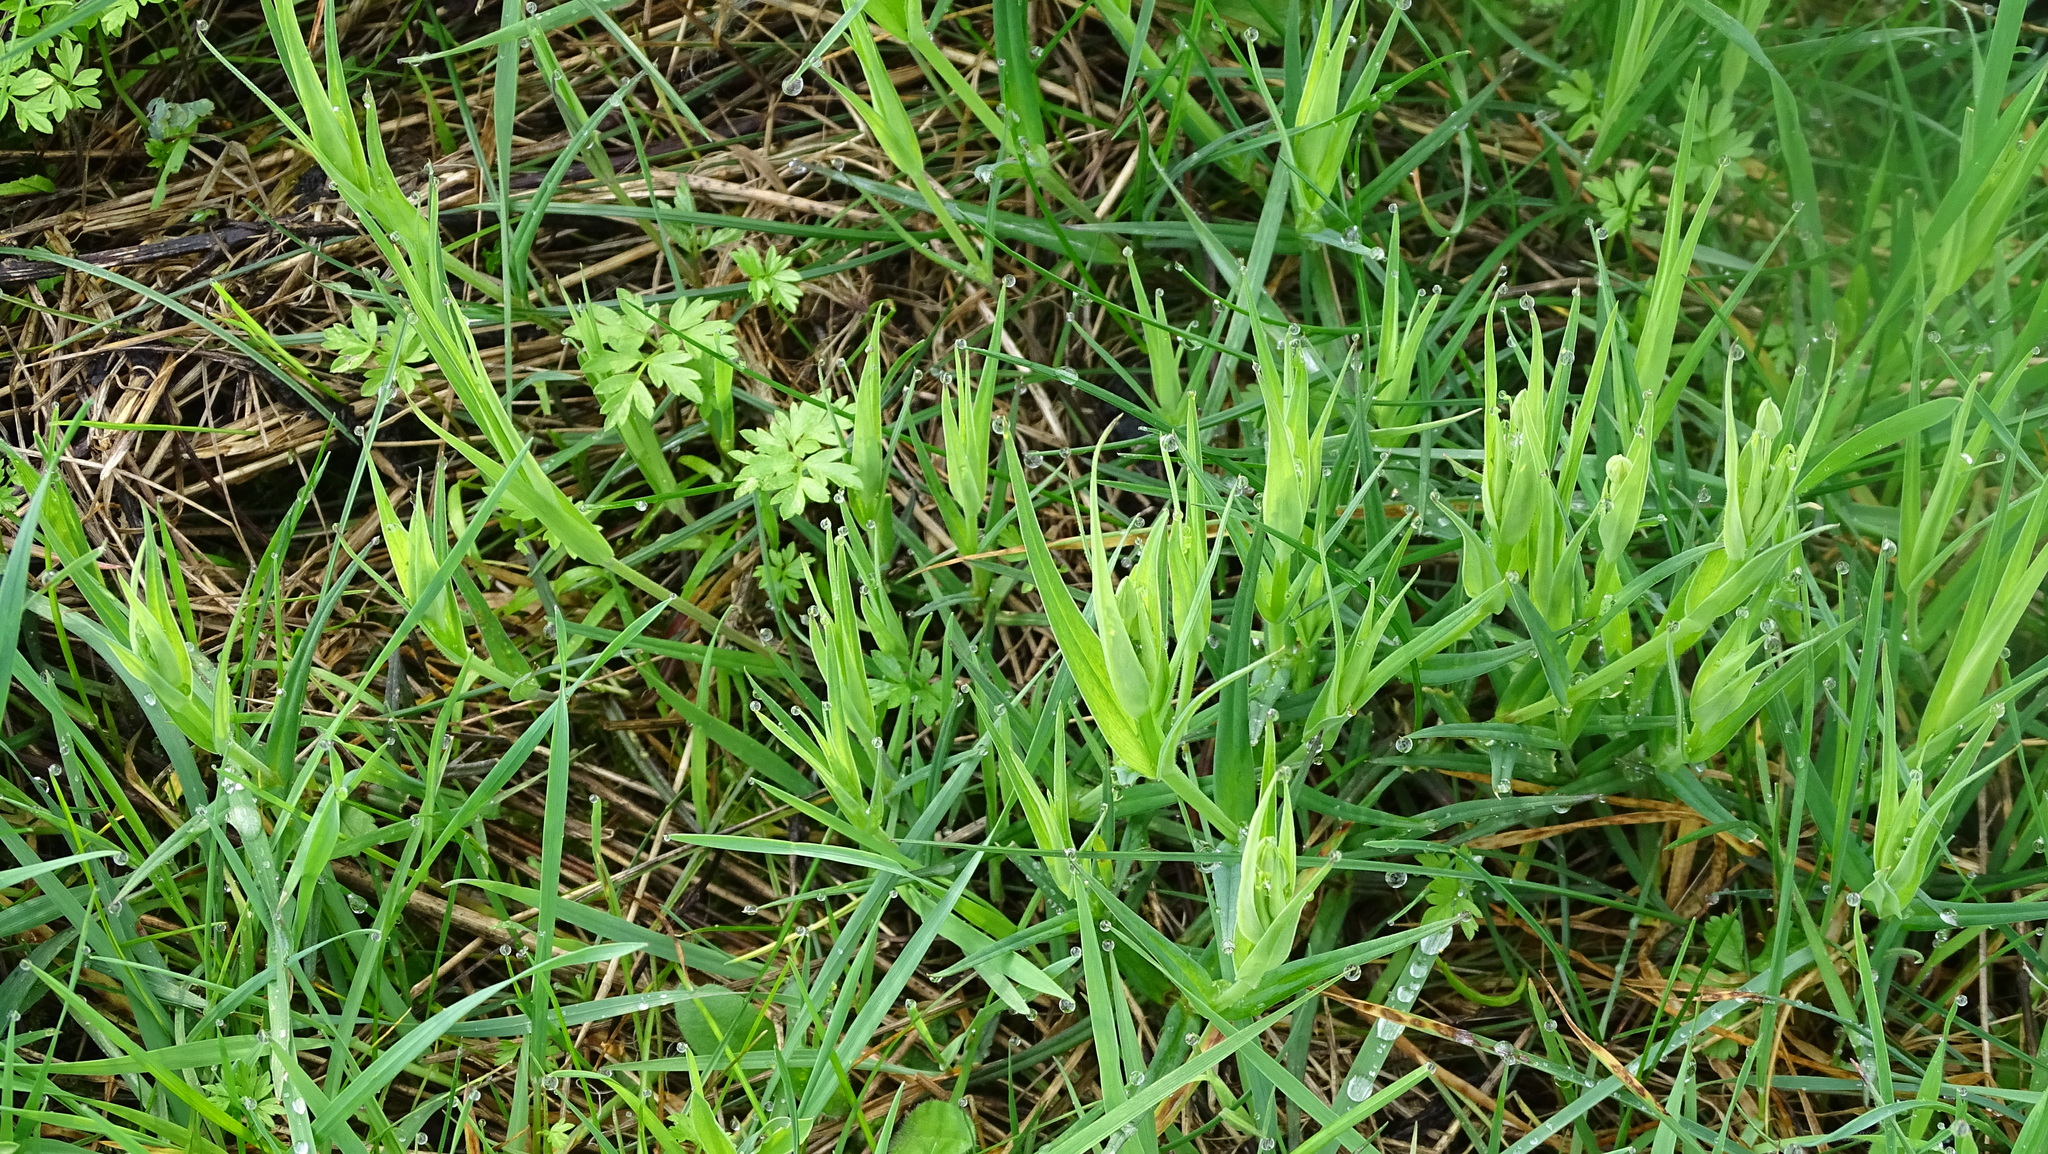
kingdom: Plantae
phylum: Tracheophyta
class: Magnoliopsida
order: Caryophyllales
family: Caryophyllaceae
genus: Rabelera
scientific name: Rabelera holostea
